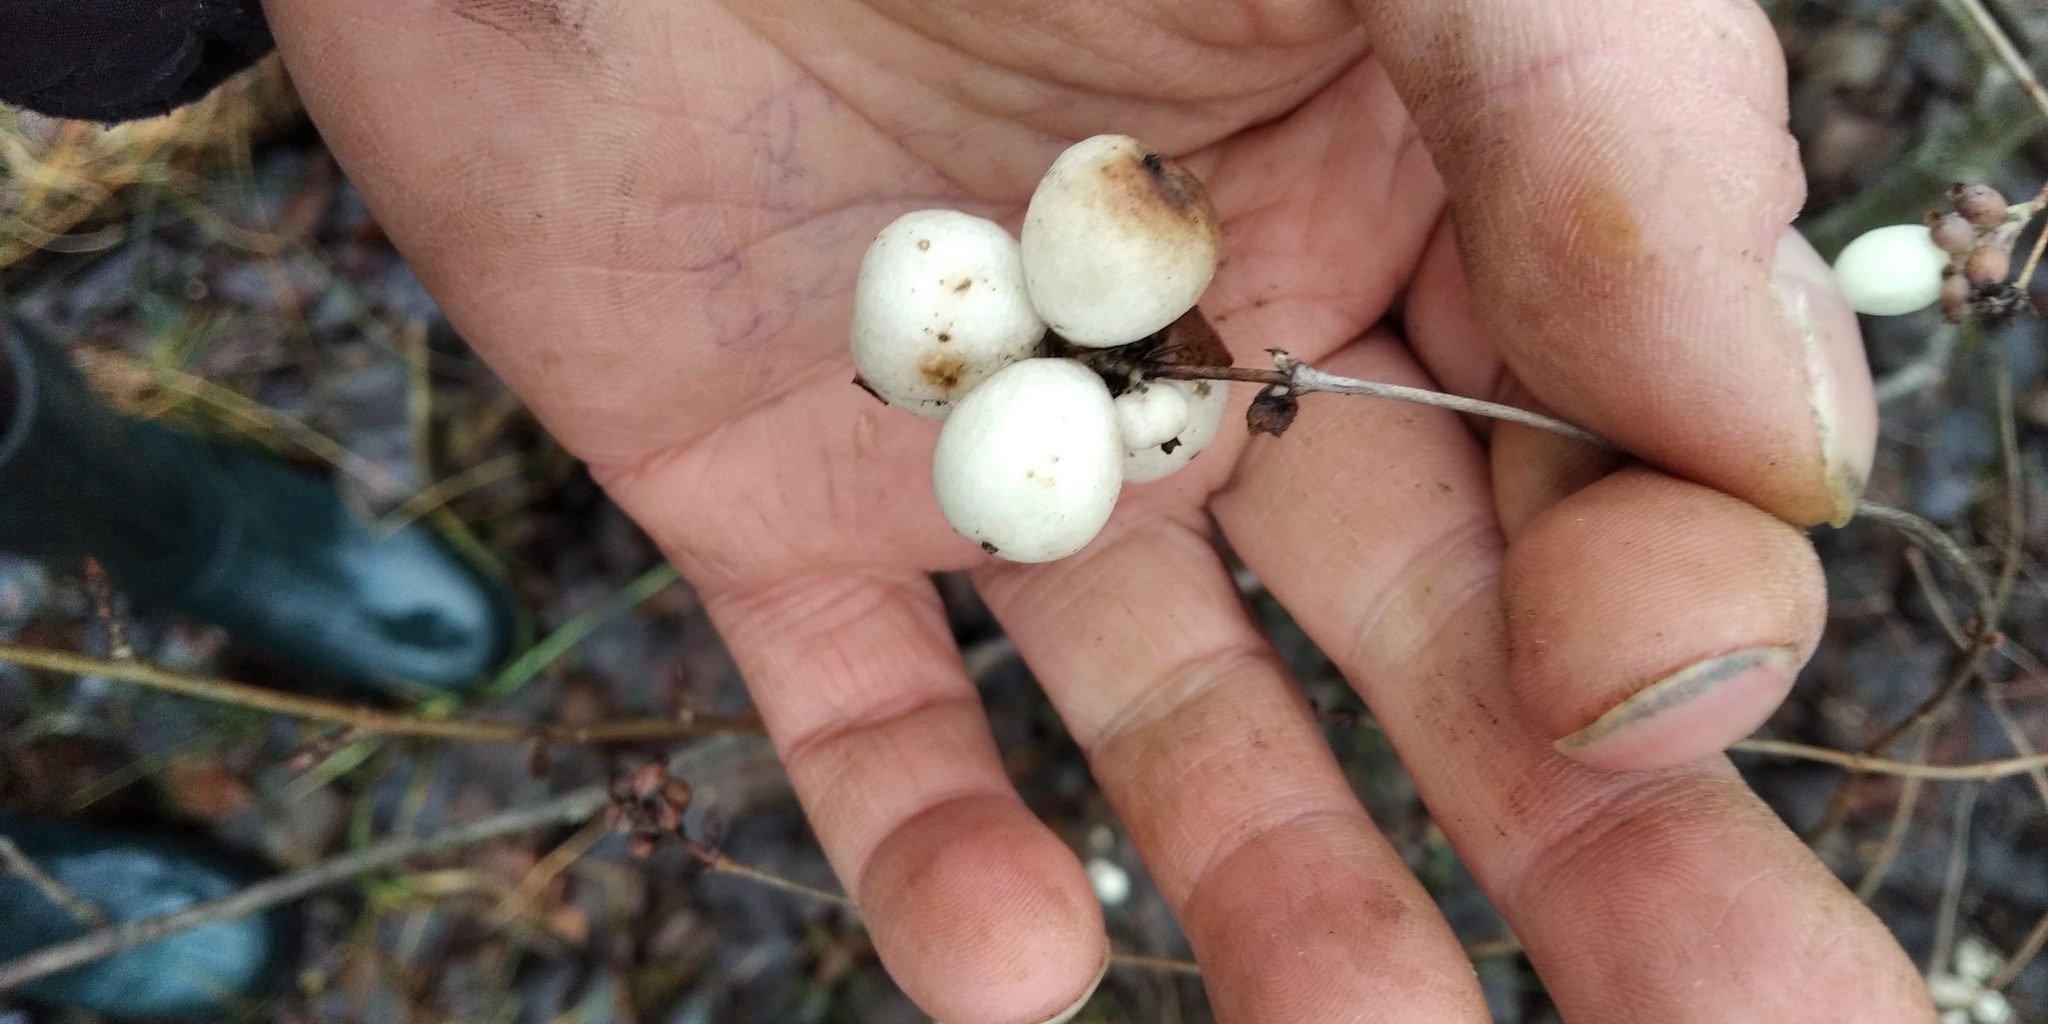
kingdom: Plantae
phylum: Tracheophyta
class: Magnoliopsida
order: Dipsacales
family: Caprifoliaceae
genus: Symphoricarpos
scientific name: Symphoricarpos albus
